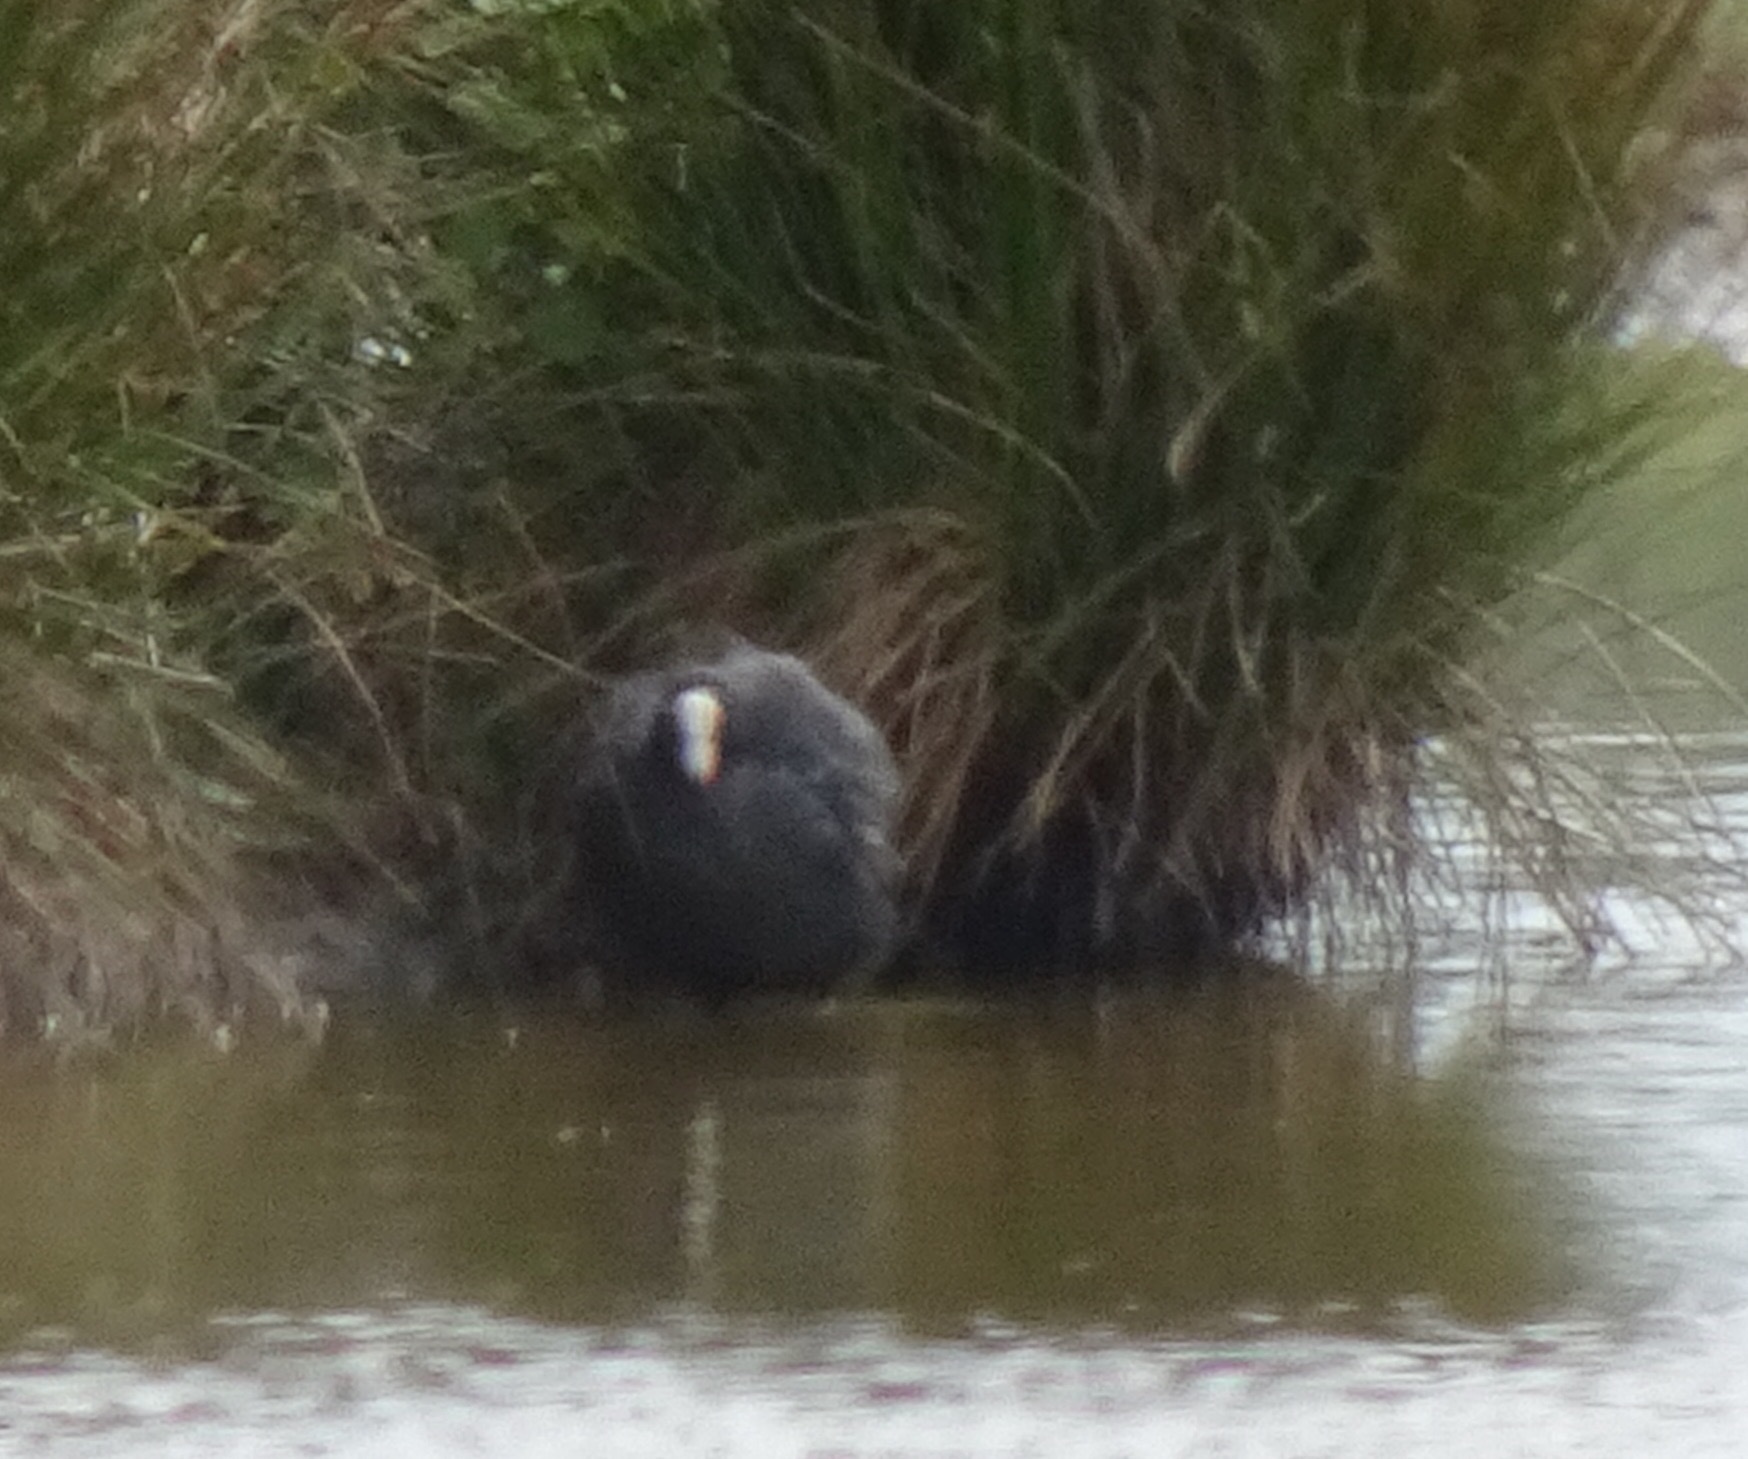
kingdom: Animalia
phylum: Chordata
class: Aves
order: Gruiformes
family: Rallidae
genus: Fulica
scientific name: Fulica atra
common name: Eurasian coot
